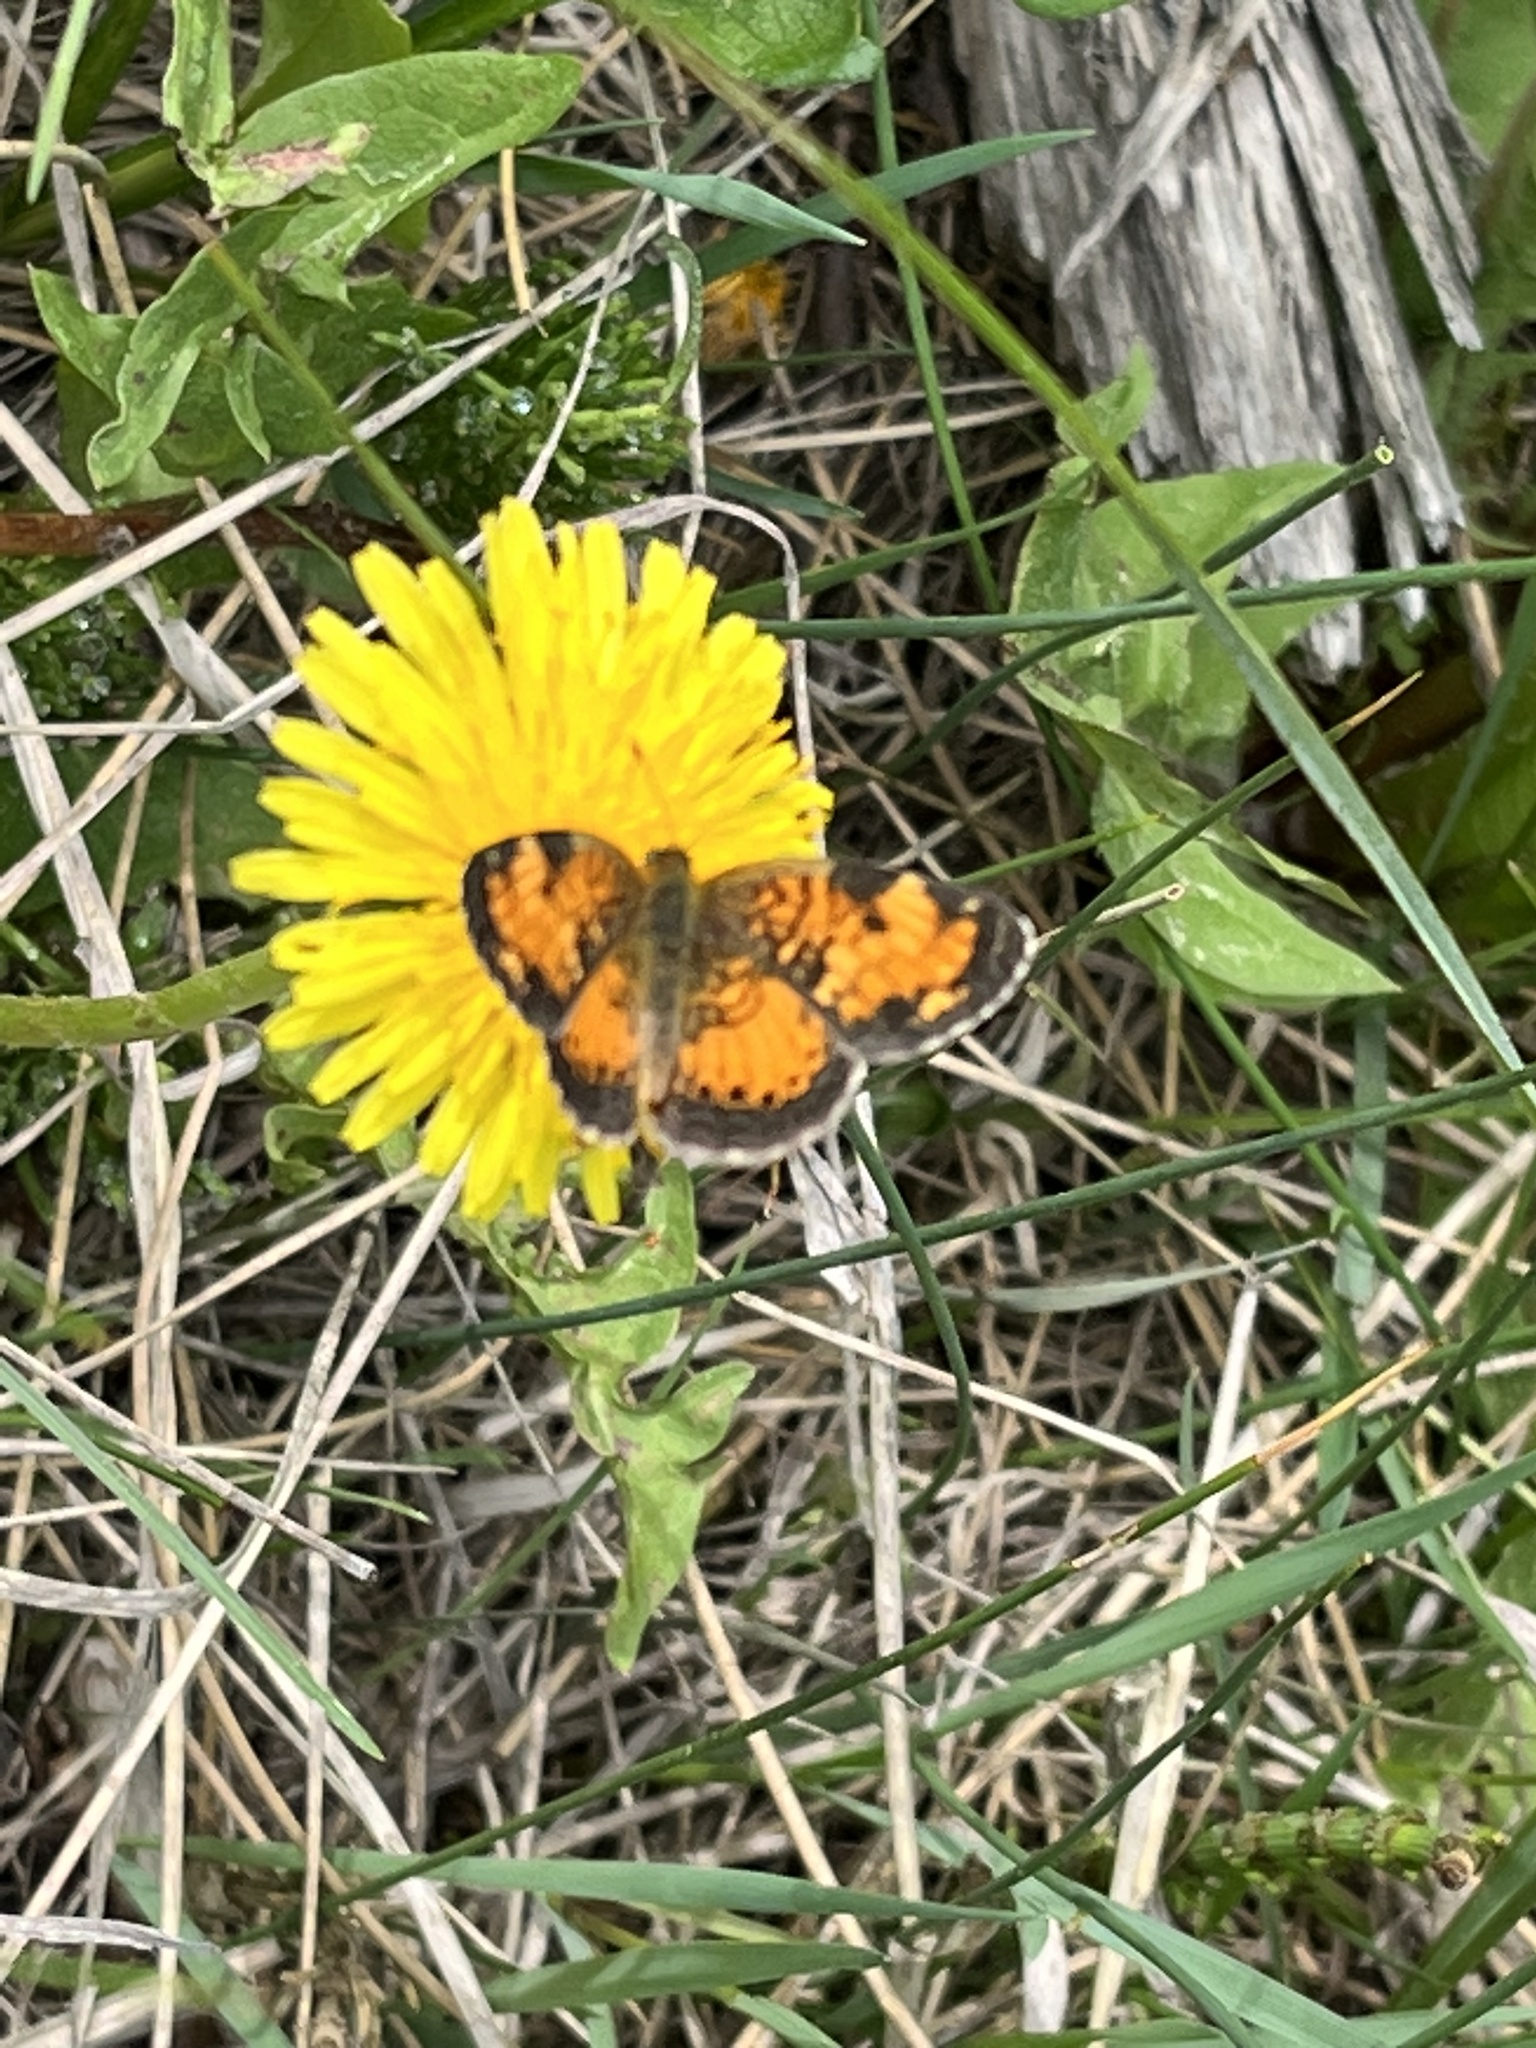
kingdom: Animalia
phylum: Arthropoda
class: Insecta
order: Lepidoptera
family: Nymphalidae
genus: Phyciodes
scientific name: Phyciodes tharos
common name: Pearl crescent
